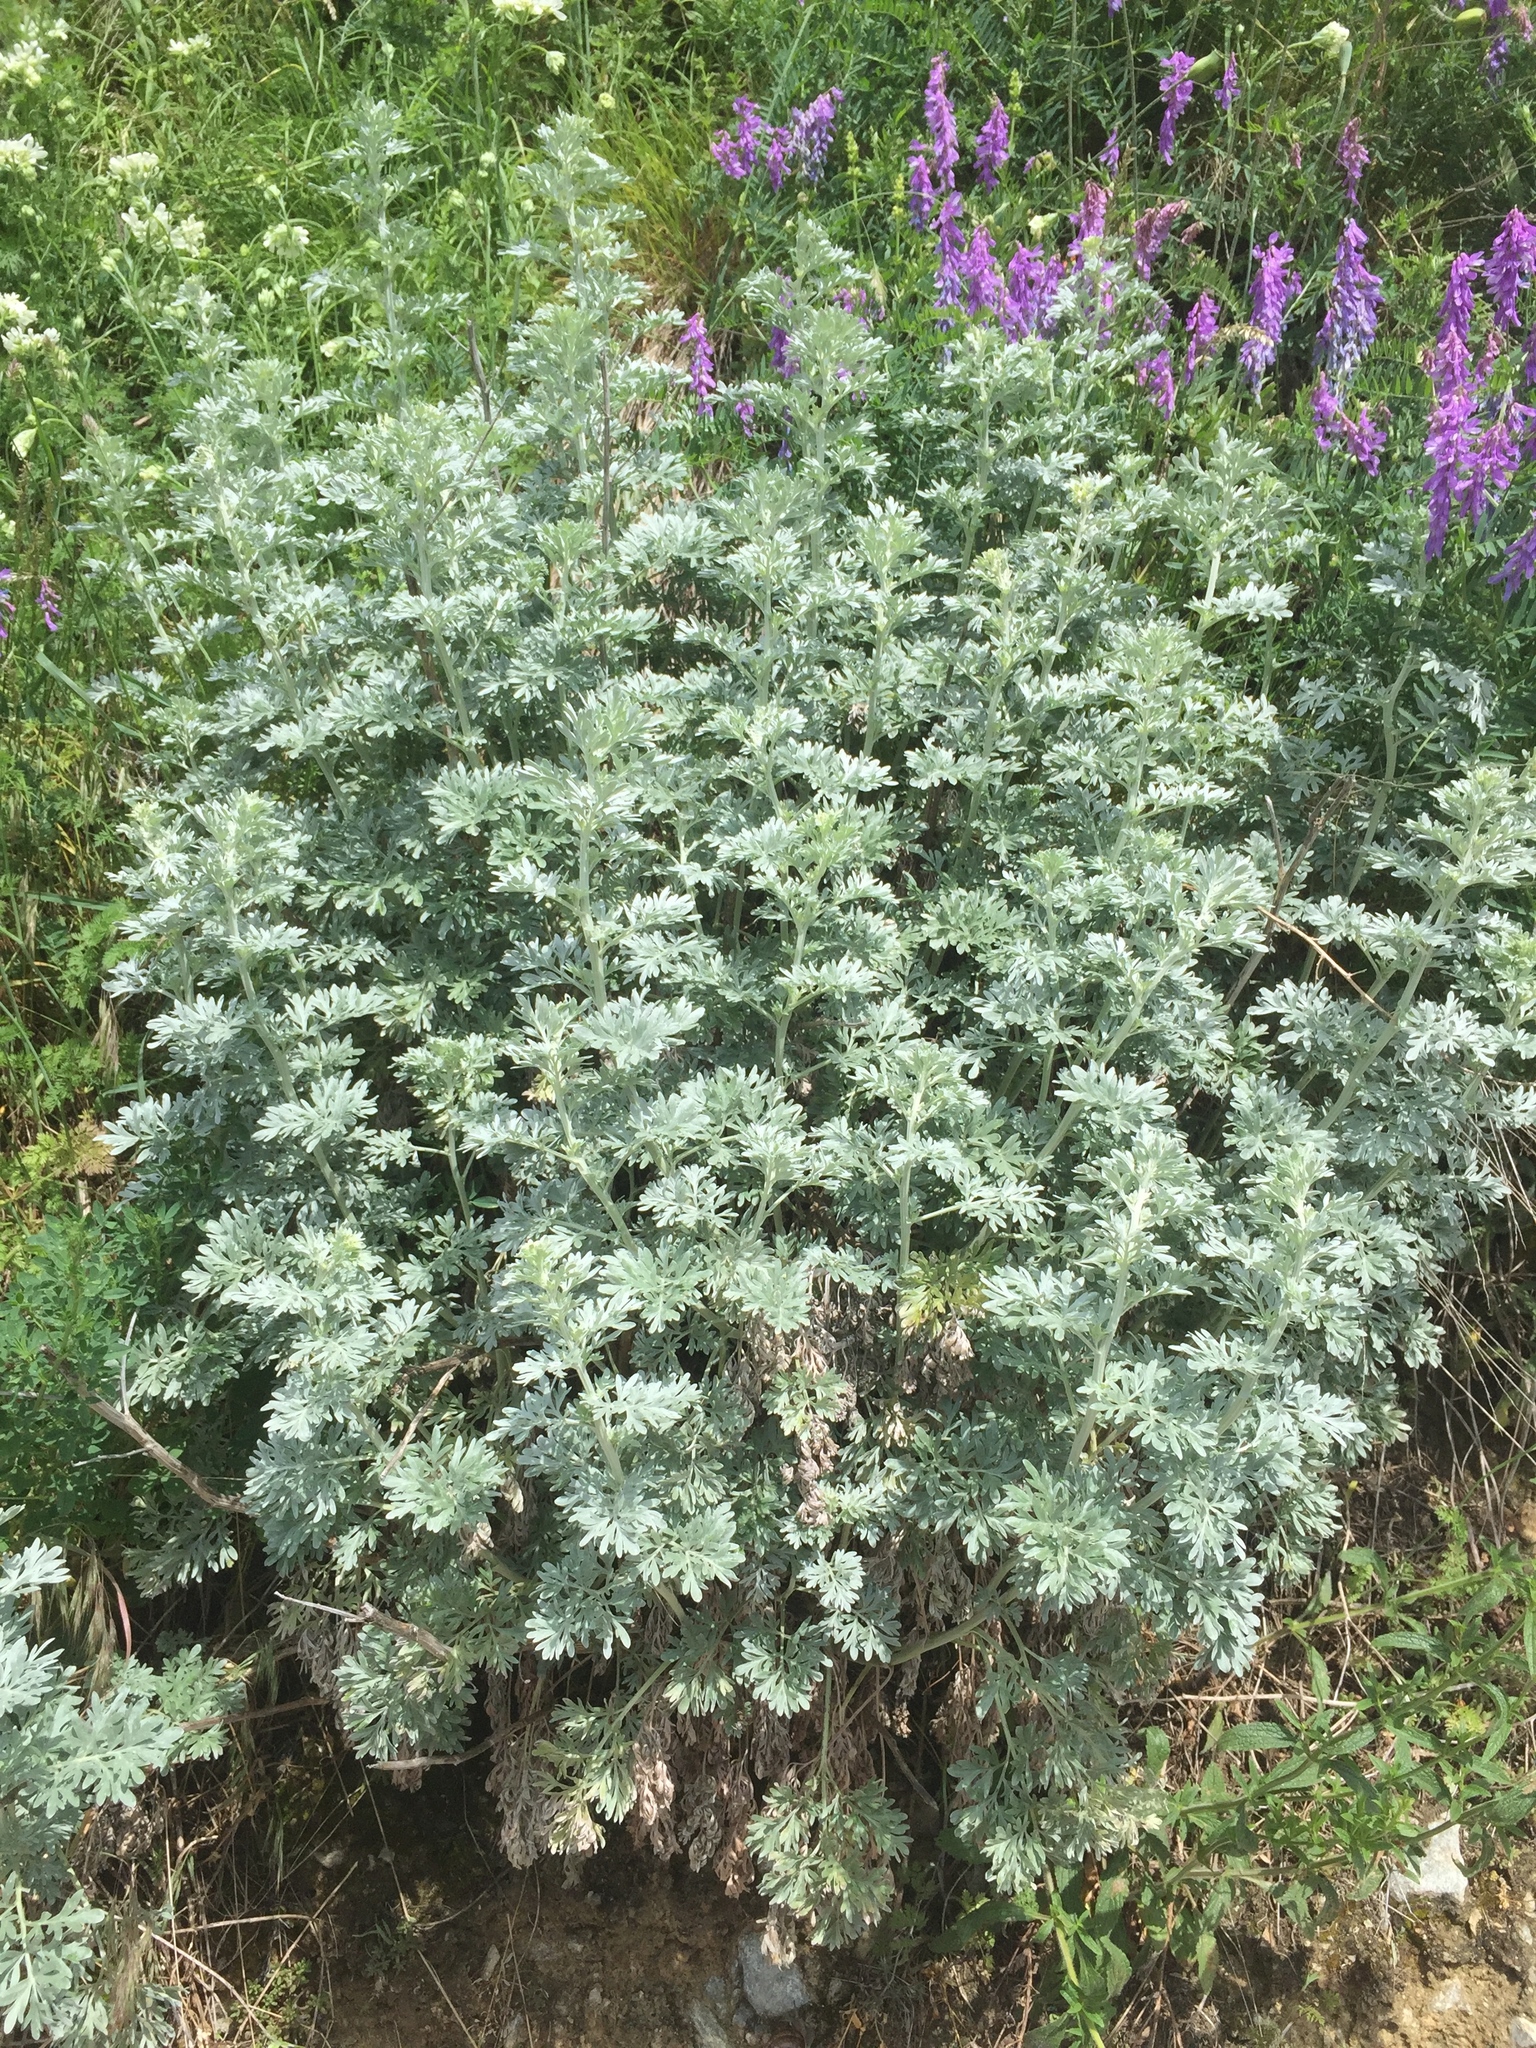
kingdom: Plantae
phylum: Tracheophyta
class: Magnoliopsida
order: Asterales
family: Asteraceae
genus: Artemisia
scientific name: Artemisia absinthium
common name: Wormwood
